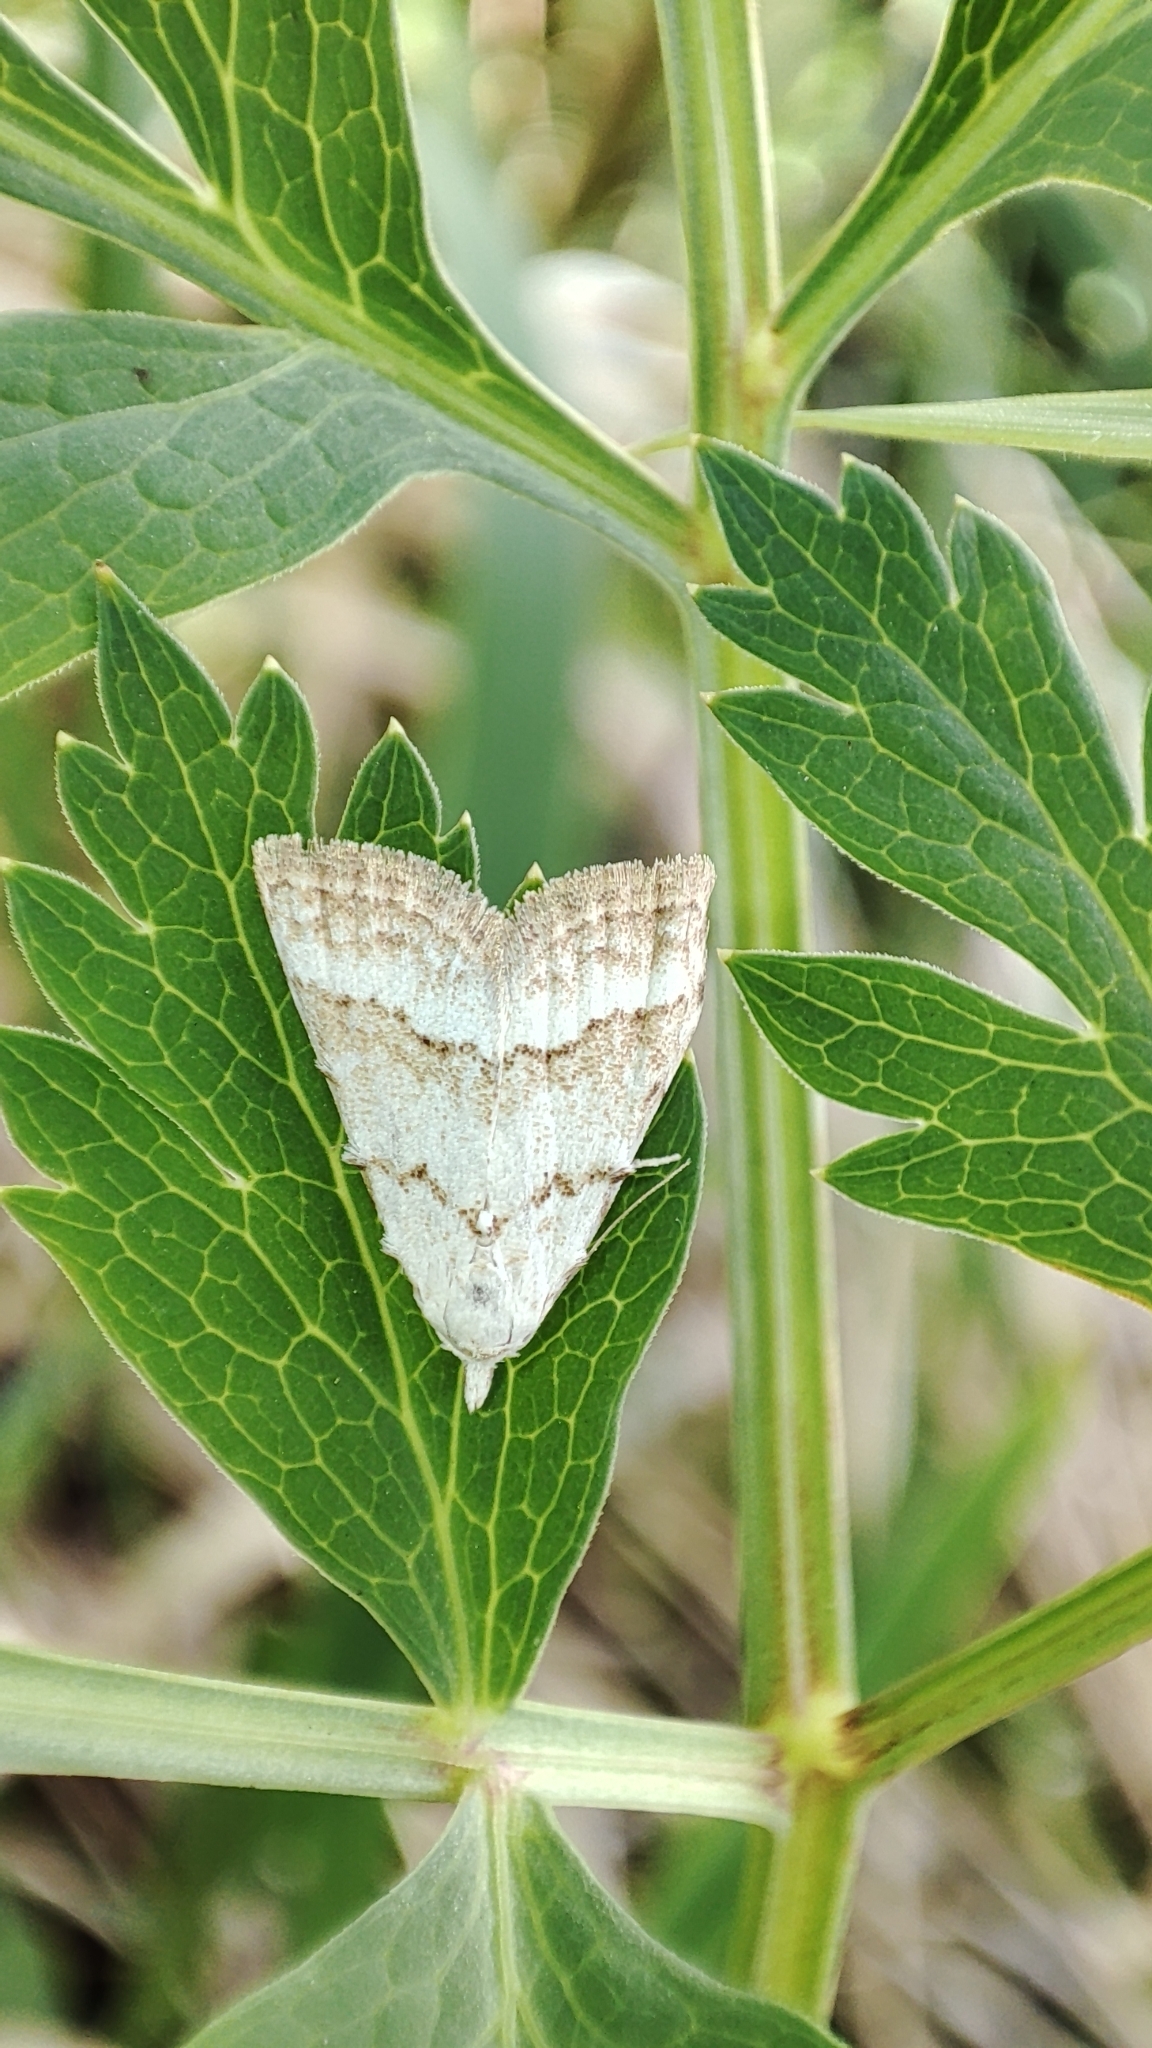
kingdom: Animalia
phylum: Arthropoda
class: Insecta
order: Lepidoptera
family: Nolidae
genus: Nola
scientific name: Nola aerugula
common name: Scarce black arches
